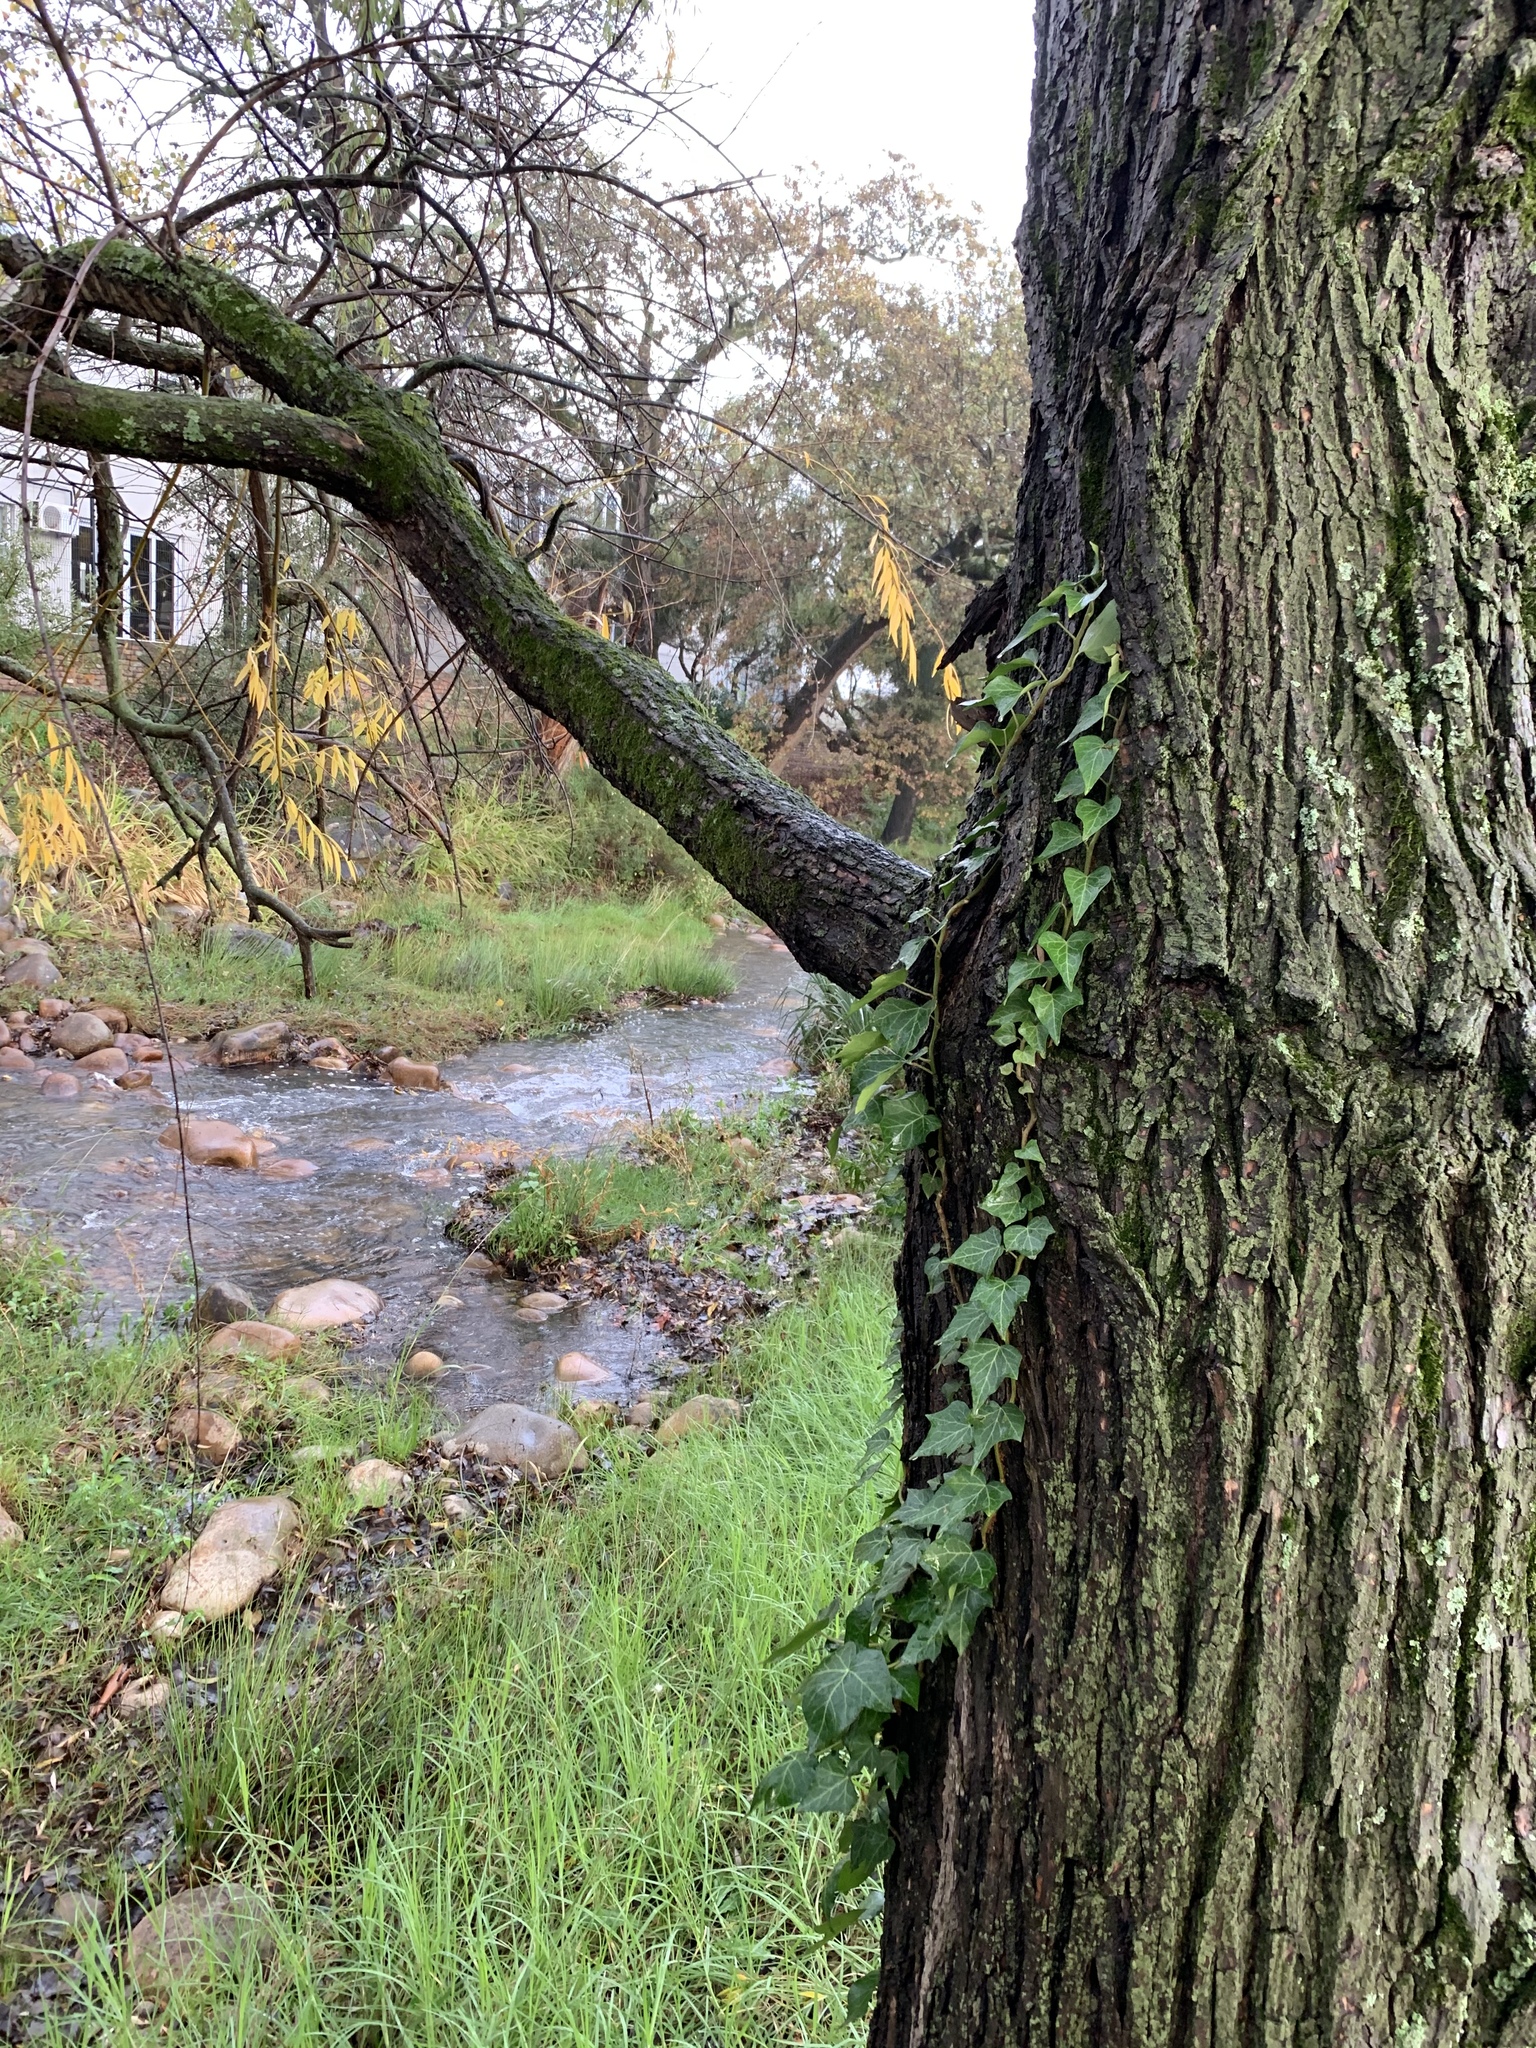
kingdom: Plantae
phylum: Tracheophyta
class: Magnoliopsida
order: Apiales
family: Araliaceae
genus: Hedera
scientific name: Hedera helix
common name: Ivy
